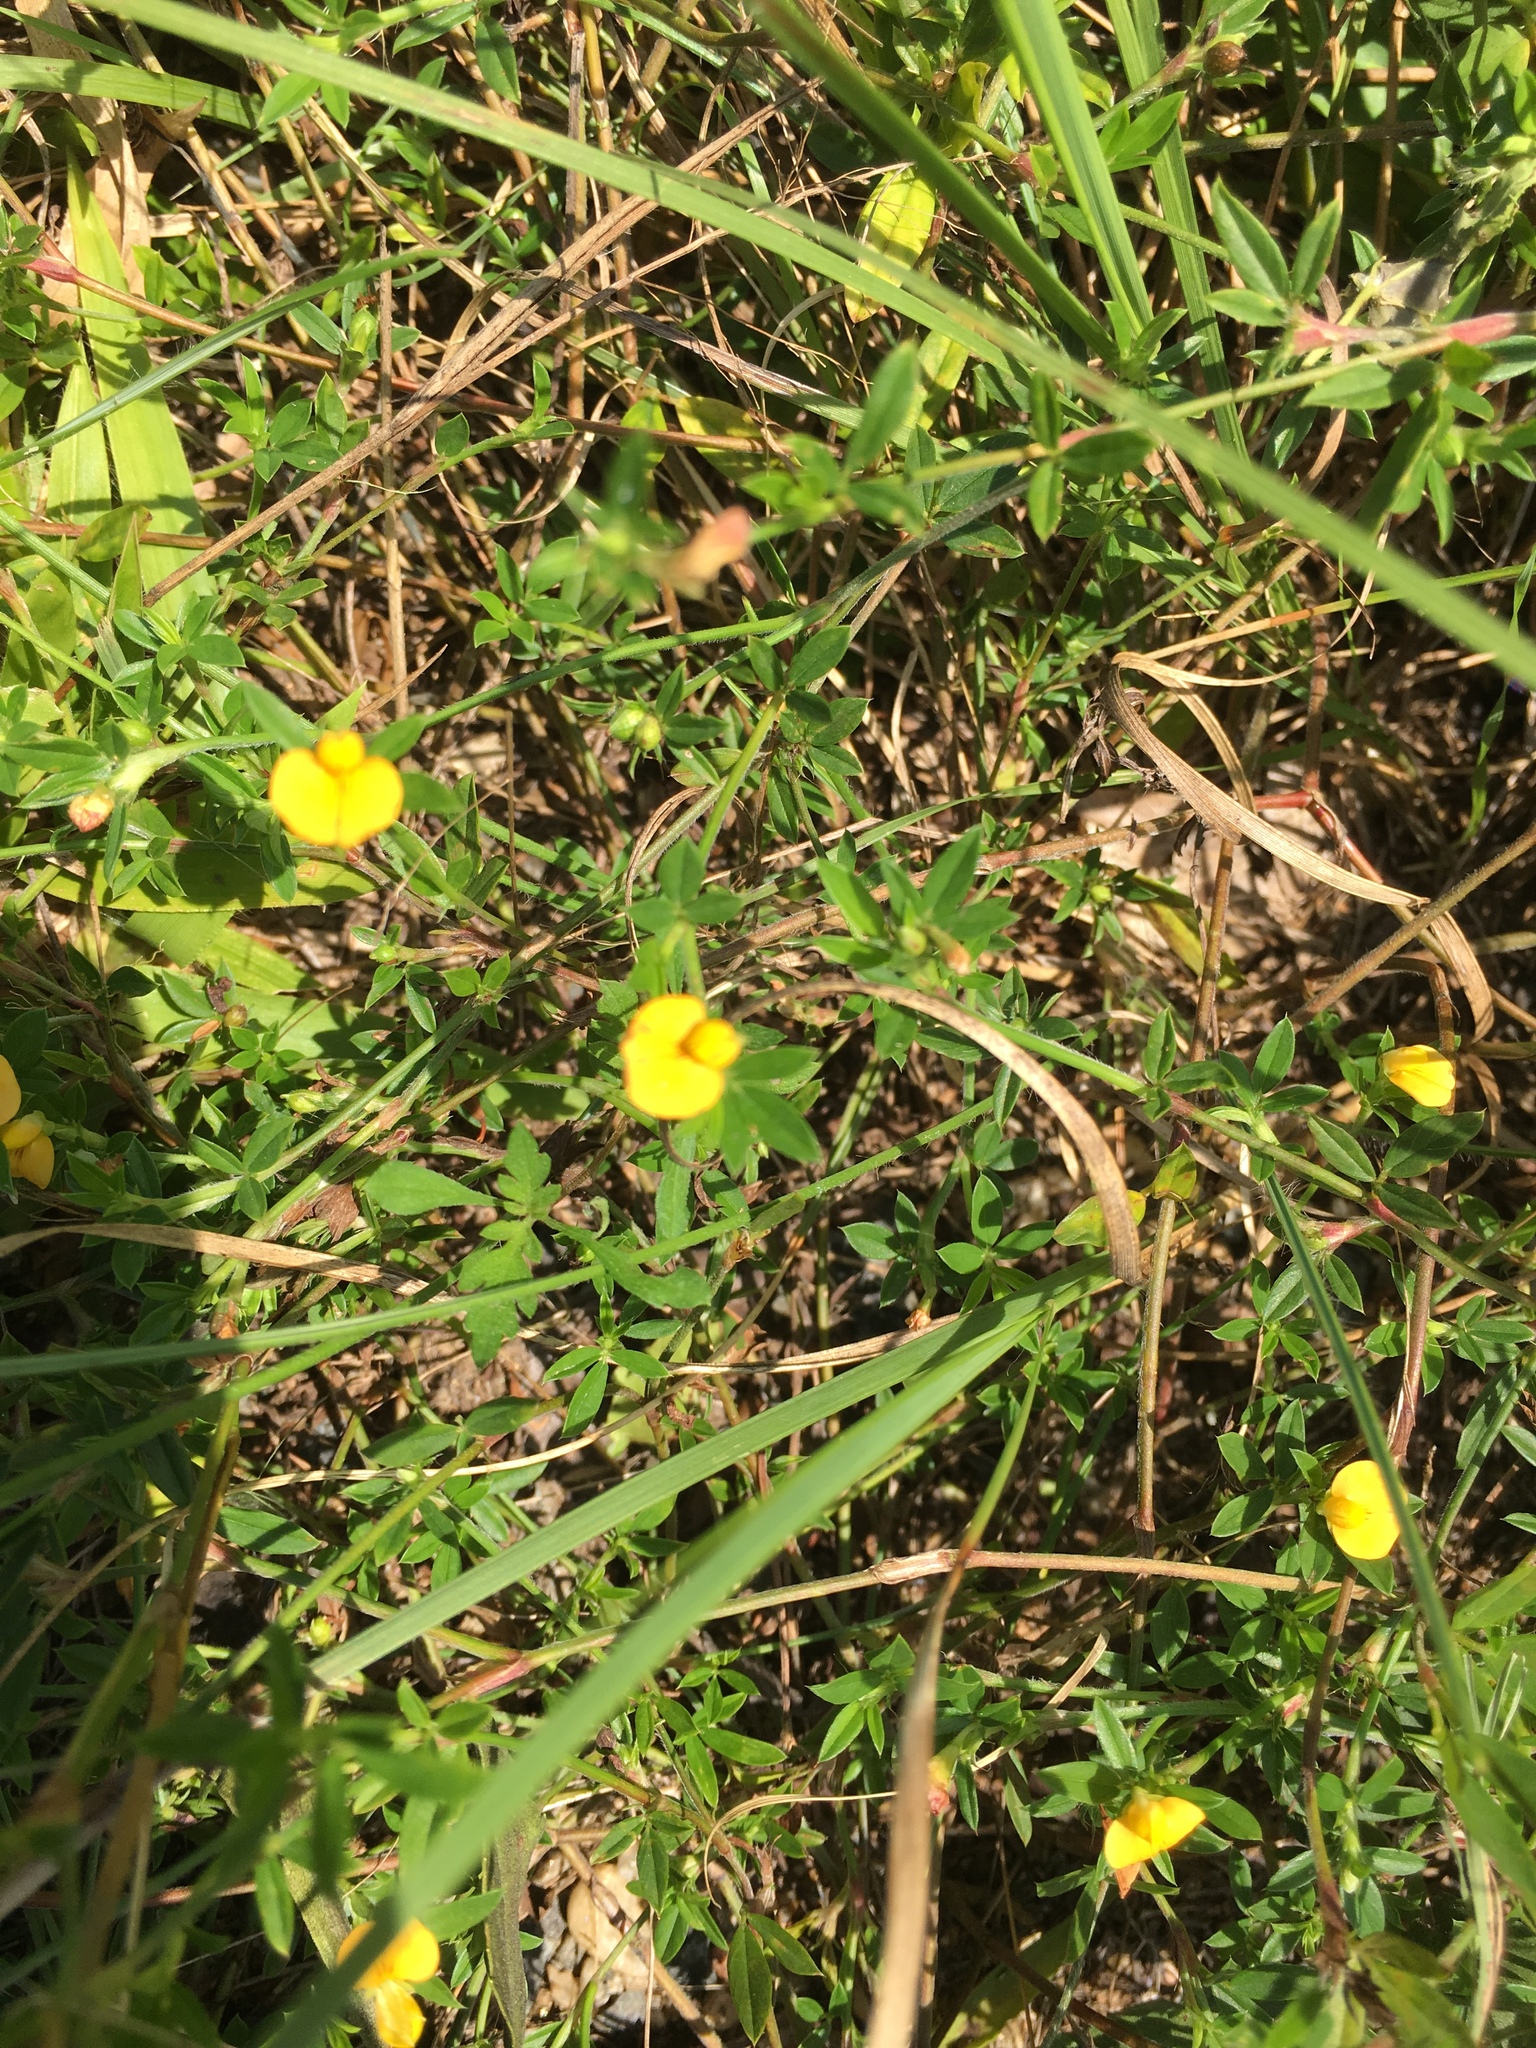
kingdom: Plantae
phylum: Tracheophyta
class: Magnoliopsida
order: Fabales
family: Fabaceae
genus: Stylosanthes
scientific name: Stylosanthes biflora
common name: Two-flower pencil-flower
